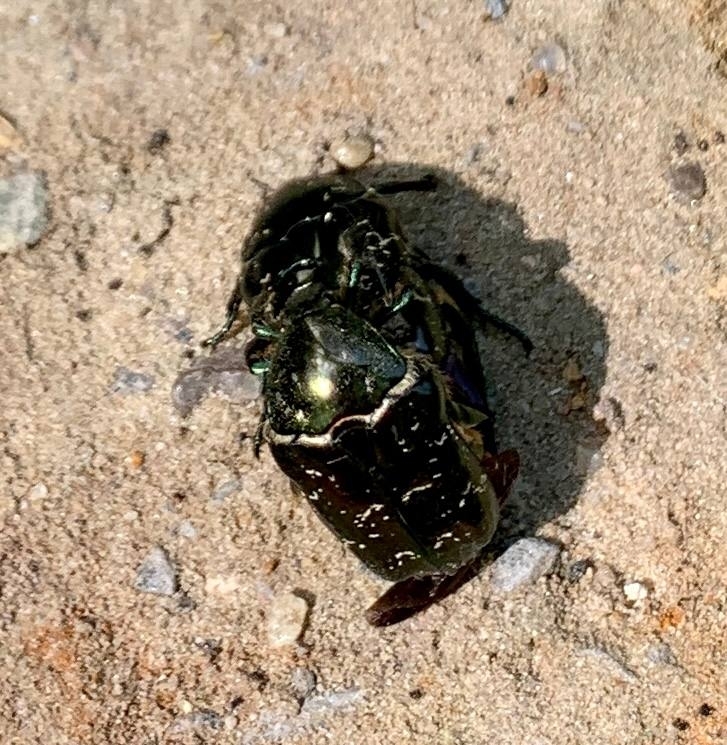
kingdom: Animalia
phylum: Arthropoda
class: Insecta
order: Coleoptera
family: Scarabaeidae
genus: Protaetia
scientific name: Protaetia marmorata
